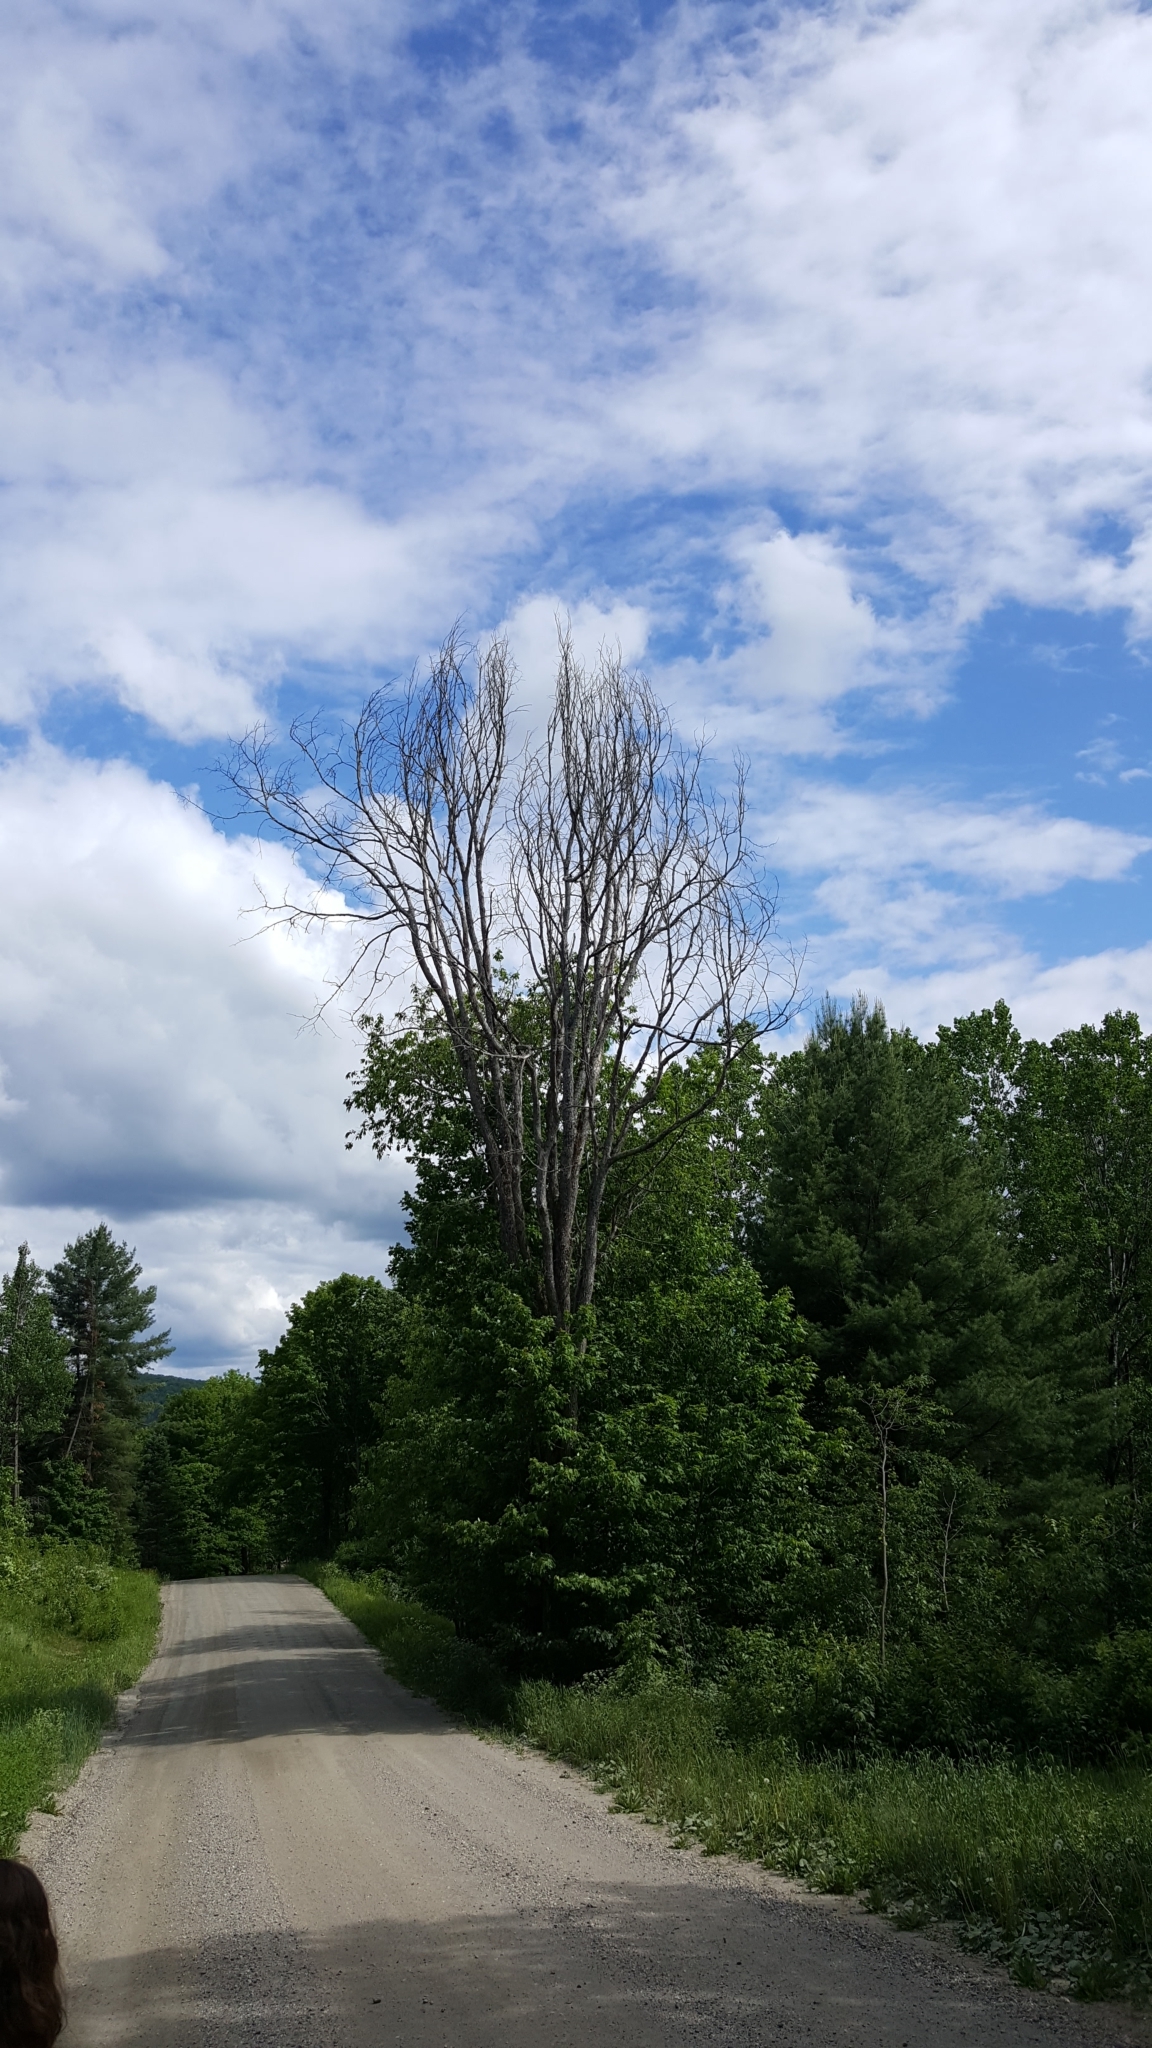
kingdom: Plantae
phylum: Tracheophyta
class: Magnoliopsida
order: Rosales
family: Ulmaceae
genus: Ulmus
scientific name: Ulmus americana
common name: American elm
